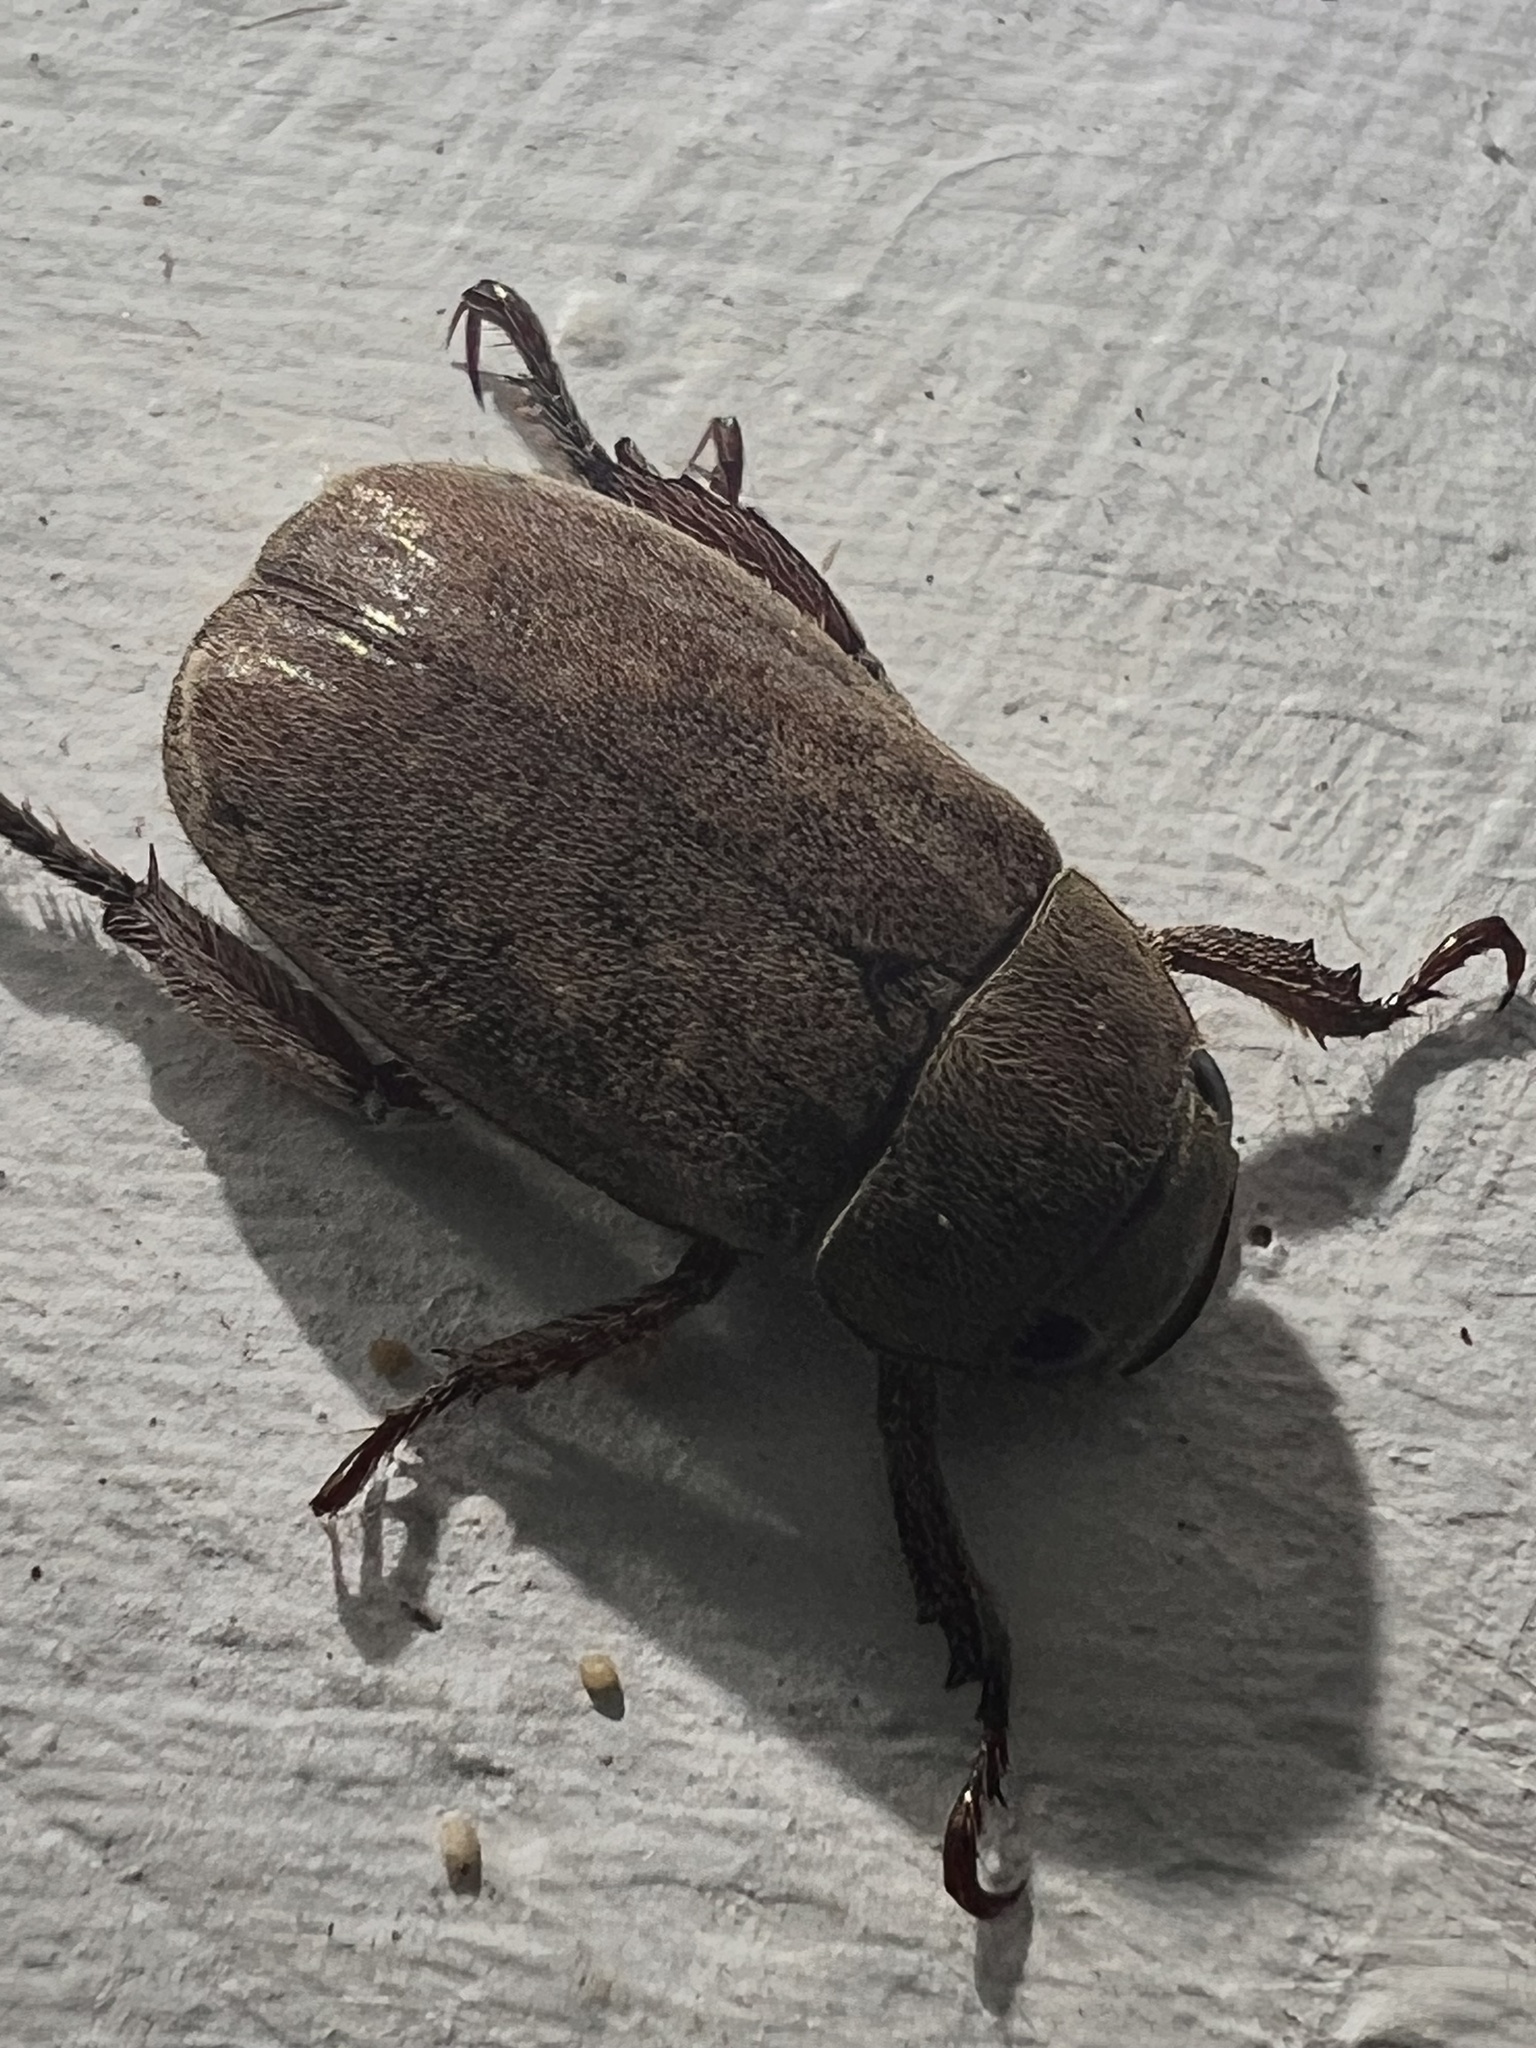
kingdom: Animalia
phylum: Arthropoda
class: Insecta
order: Coleoptera
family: Scarabaeidae
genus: Adoretus
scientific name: Adoretus sinicus
